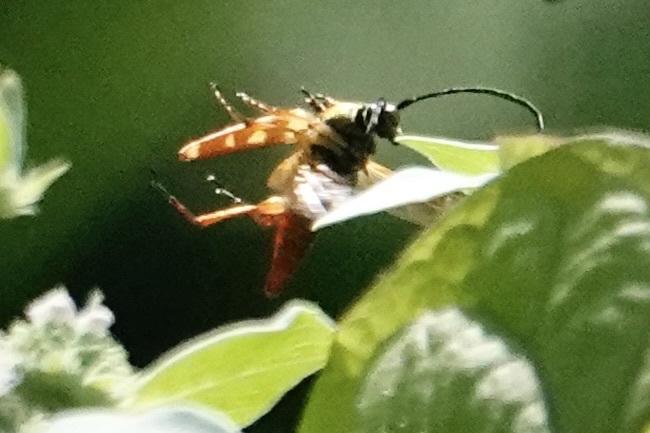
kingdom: Animalia
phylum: Arthropoda
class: Insecta
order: Coleoptera
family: Cerambycidae
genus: Typocerus
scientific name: Typocerus velutinus
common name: Banded longhorn beetle
